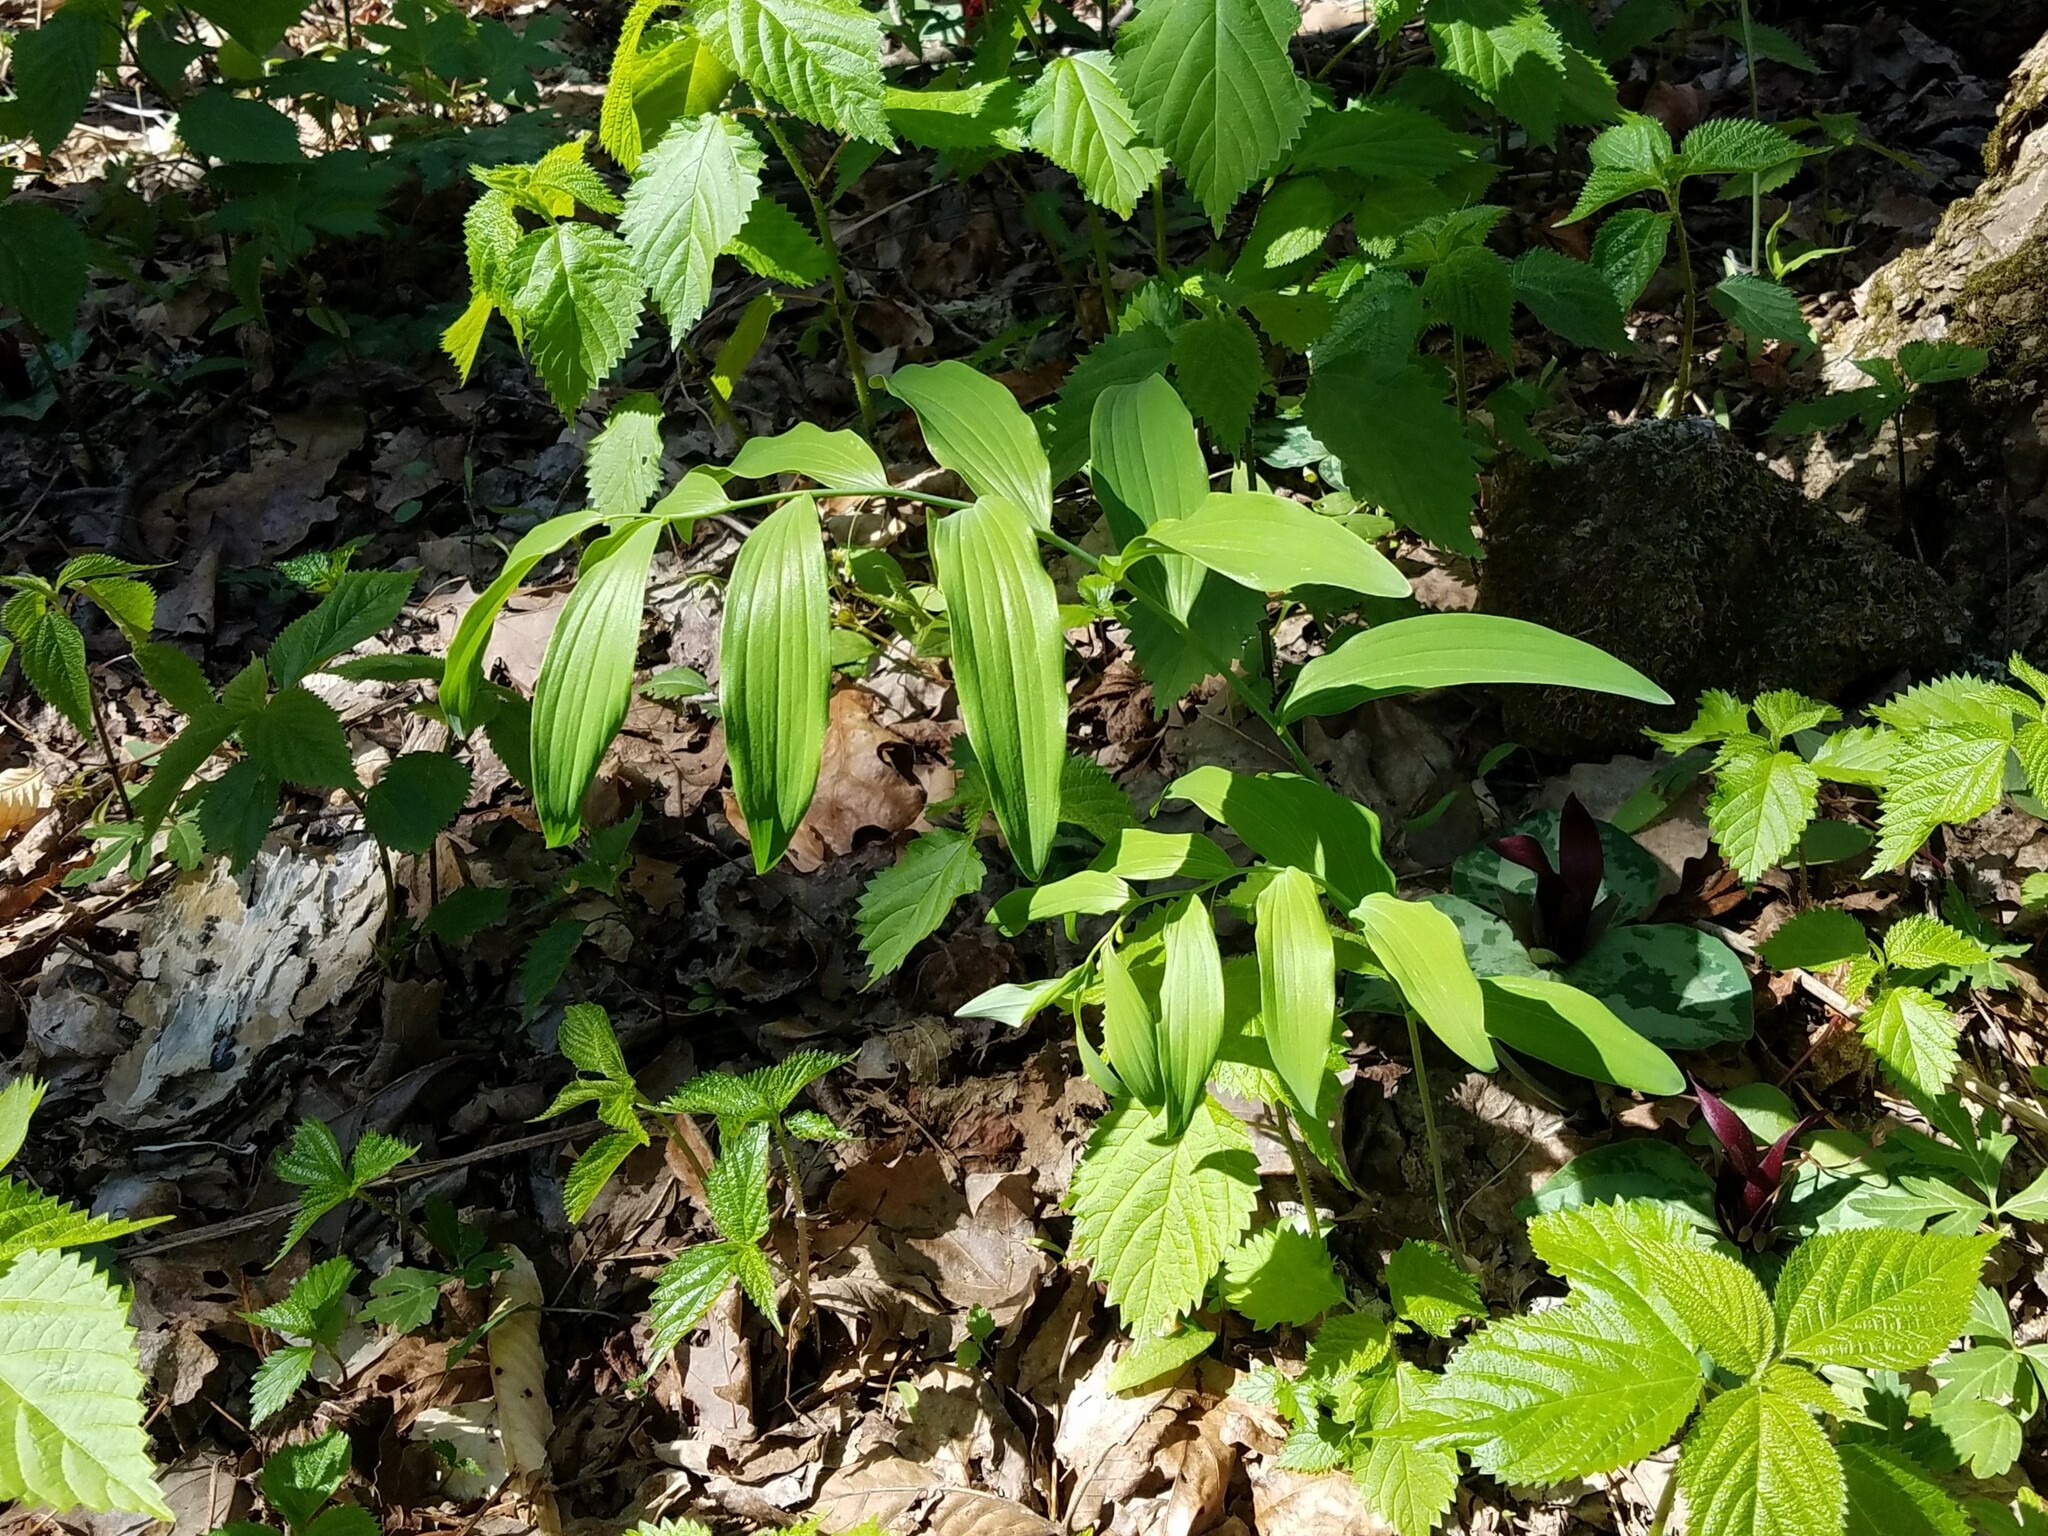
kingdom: Plantae
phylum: Tracheophyta
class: Liliopsida
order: Asparagales
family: Asparagaceae
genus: Polygonatum
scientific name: Polygonatum biflorum
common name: American solomon's-seal
